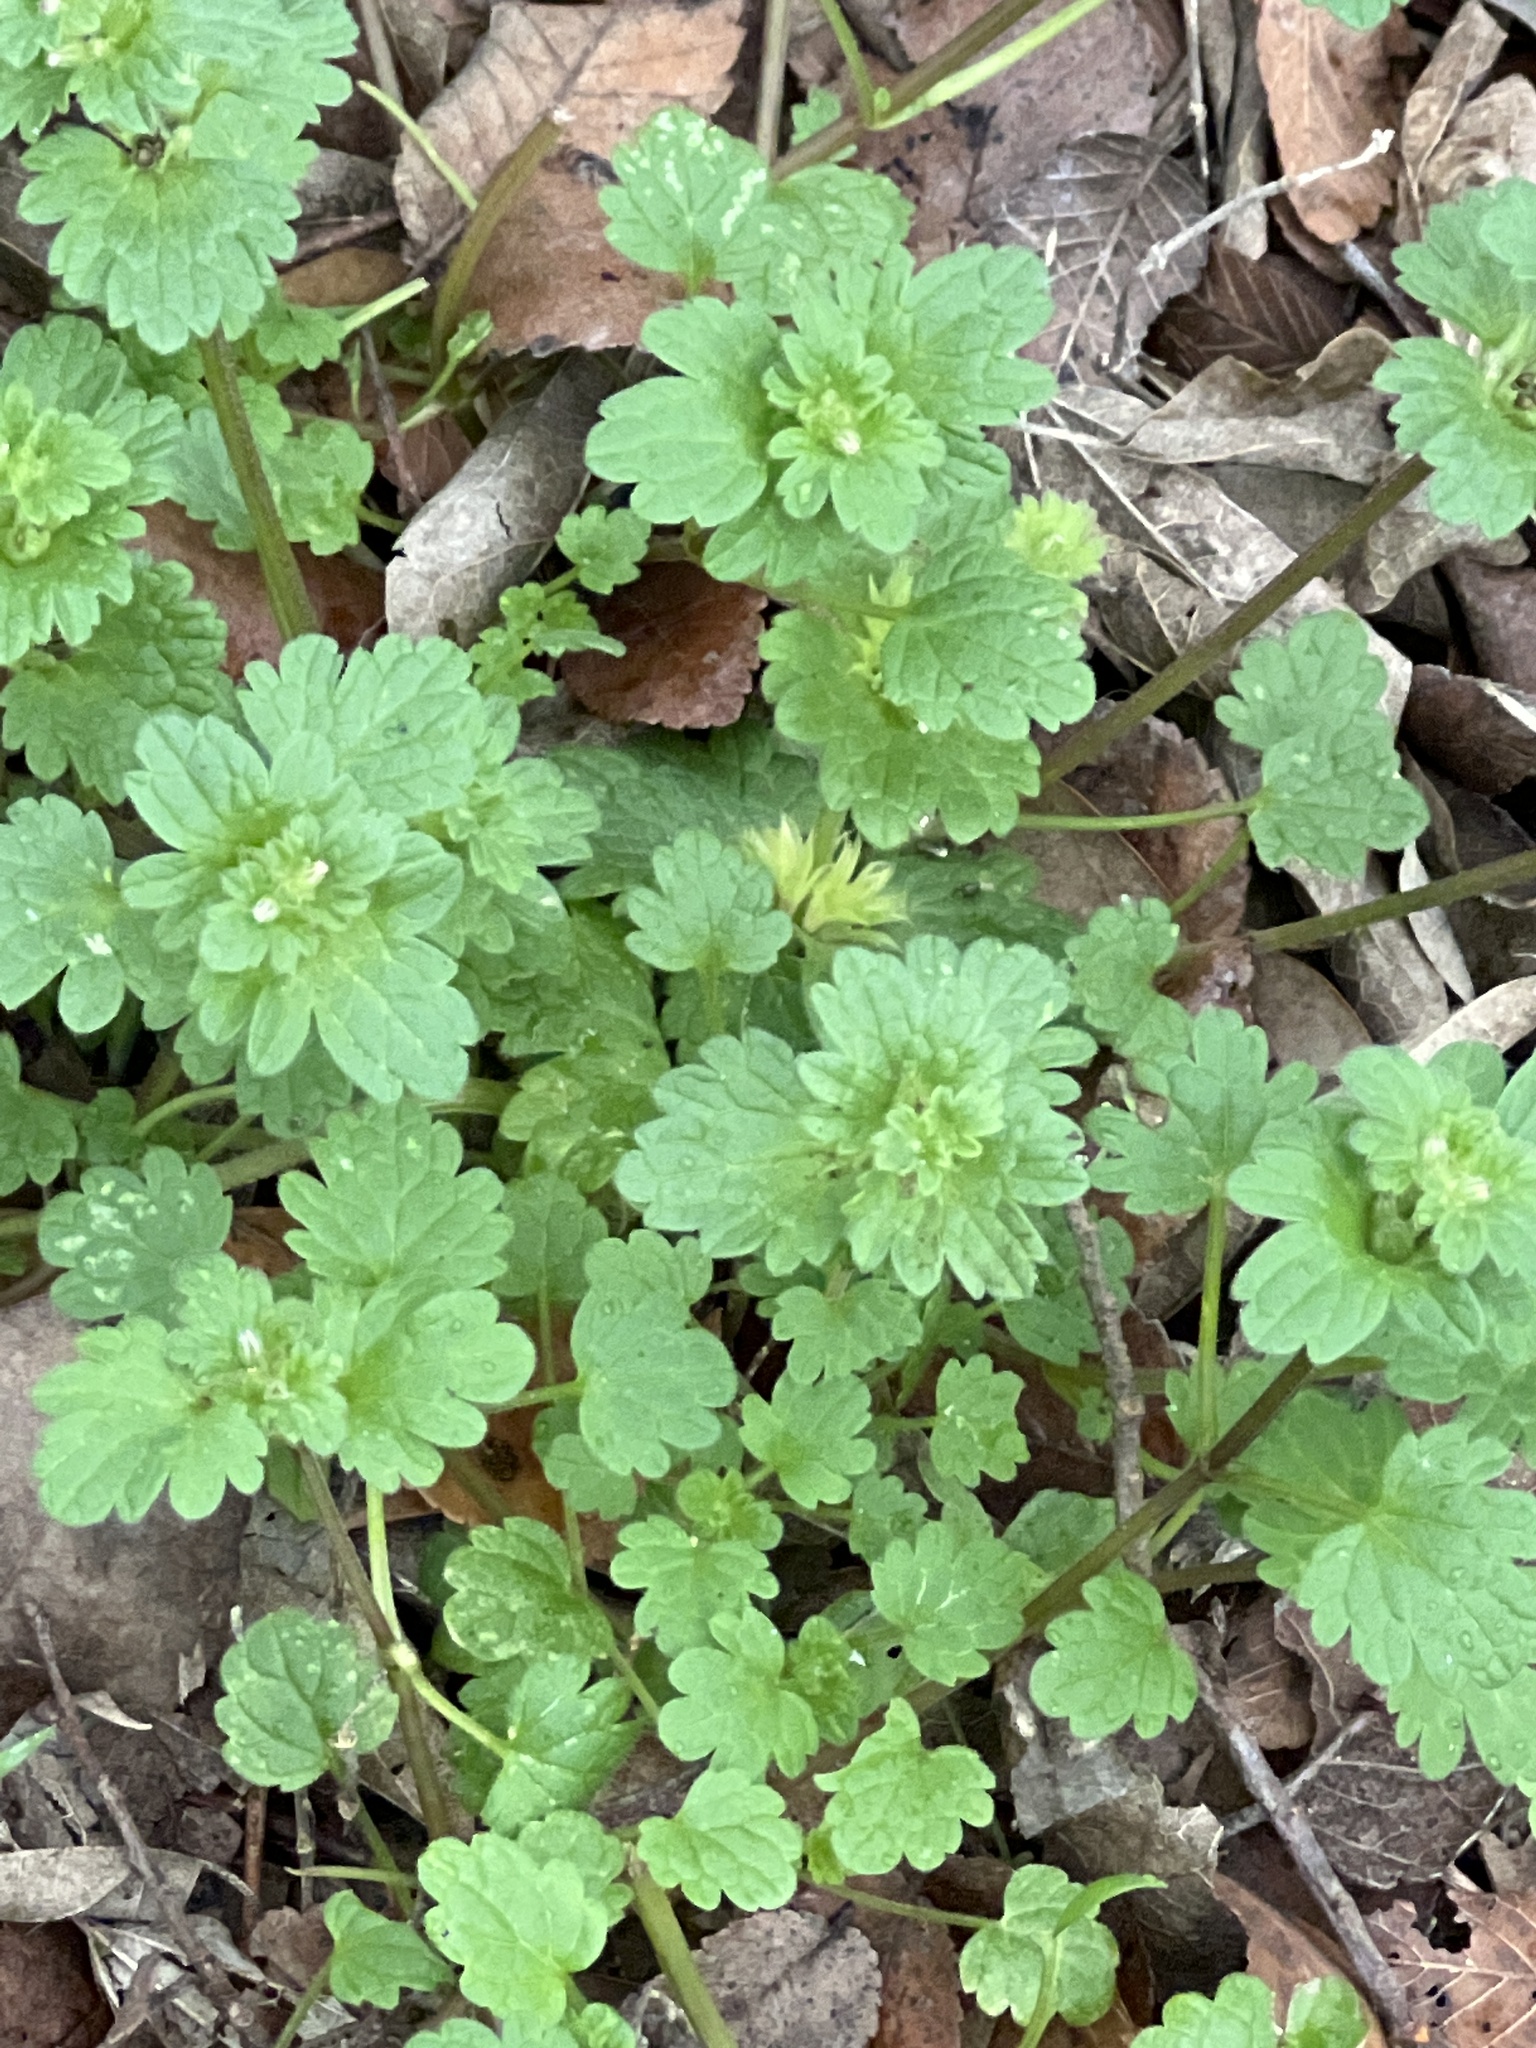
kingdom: Plantae
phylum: Tracheophyta
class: Magnoliopsida
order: Lamiales
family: Lamiaceae
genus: Lamium
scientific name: Lamium amplexicaule
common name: Henbit dead-nettle
